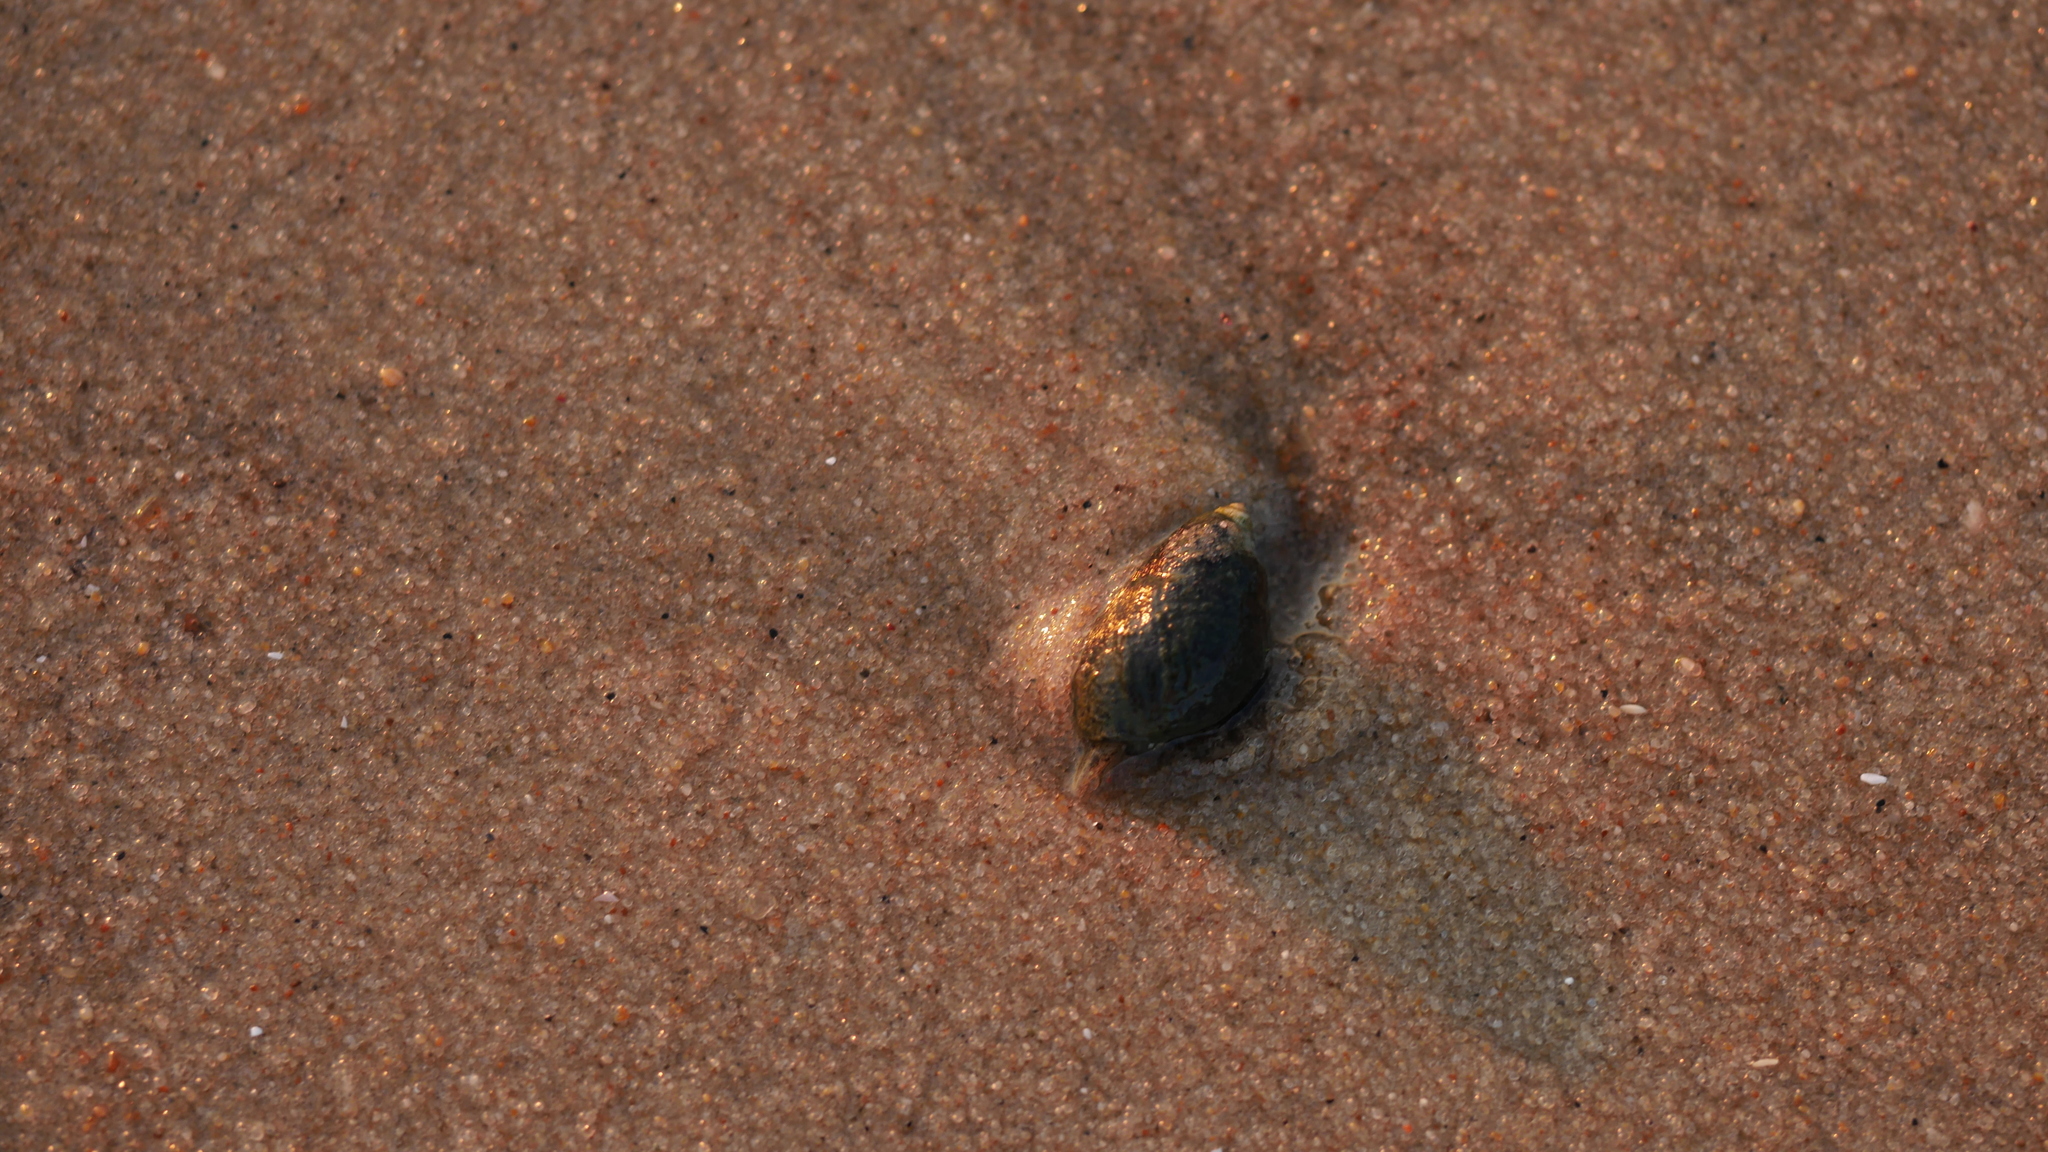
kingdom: Animalia
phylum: Mollusca
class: Gastropoda
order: Neogastropoda
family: Nassariidae
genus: Ilyanassa
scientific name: Ilyanassa obsoleta
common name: Eastern mudsnail
